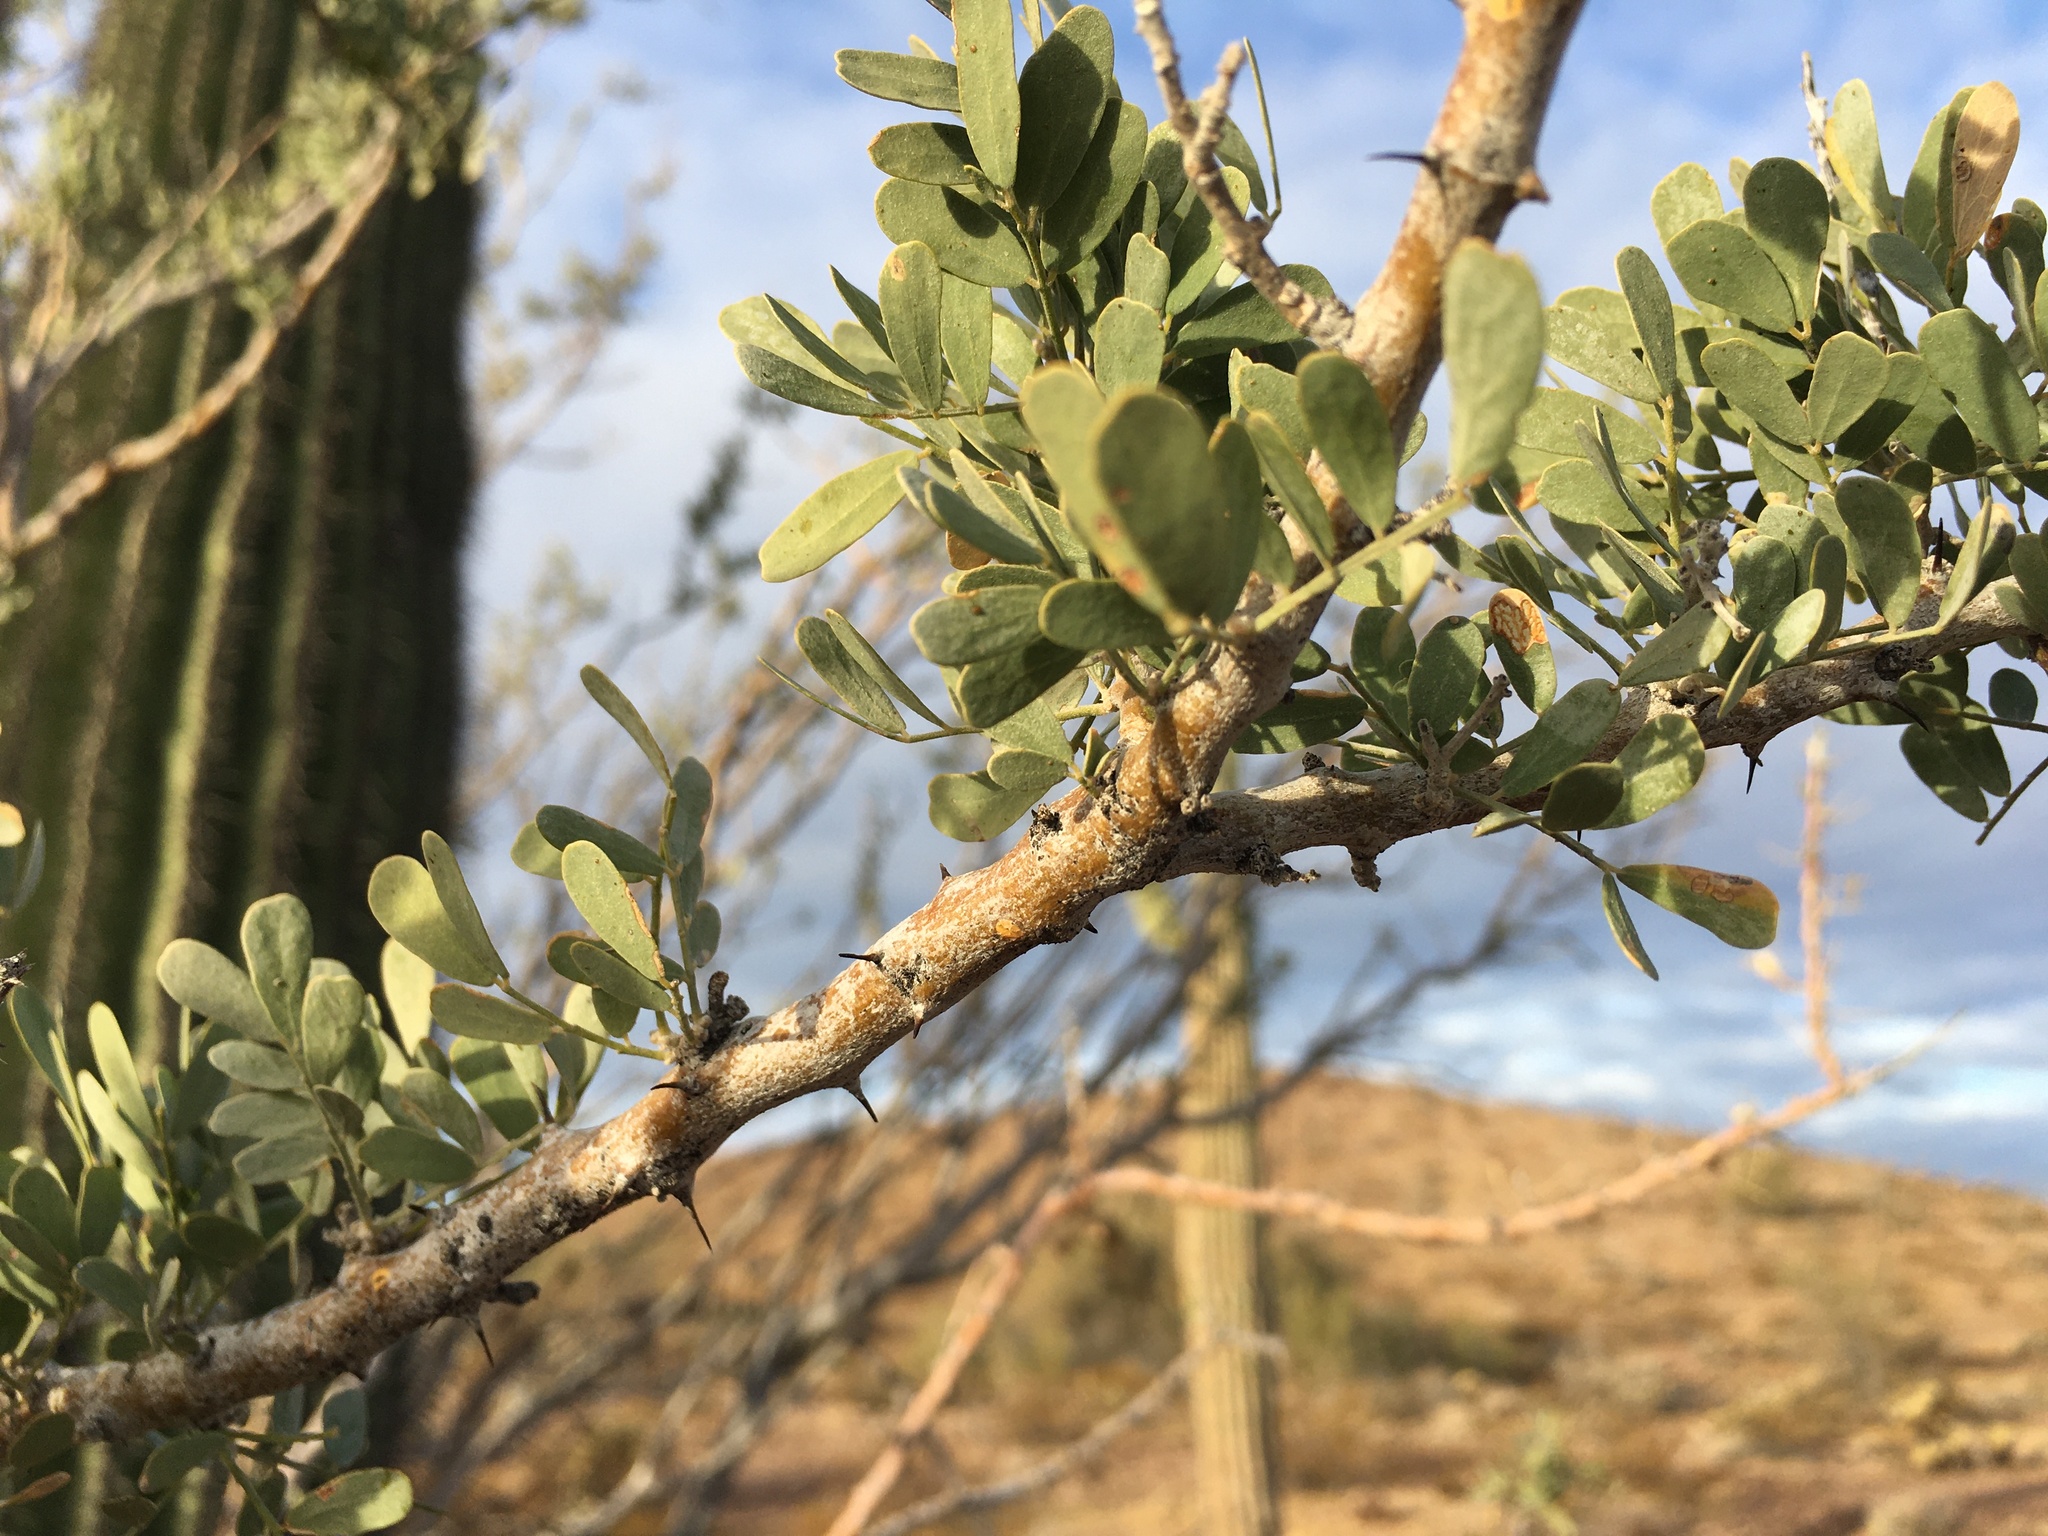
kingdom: Plantae
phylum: Tracheophyta
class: Magnoliopsida
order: Fabales
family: Fabaceae
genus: Olneya
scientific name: Olneya tesota
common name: Desert ironwood
